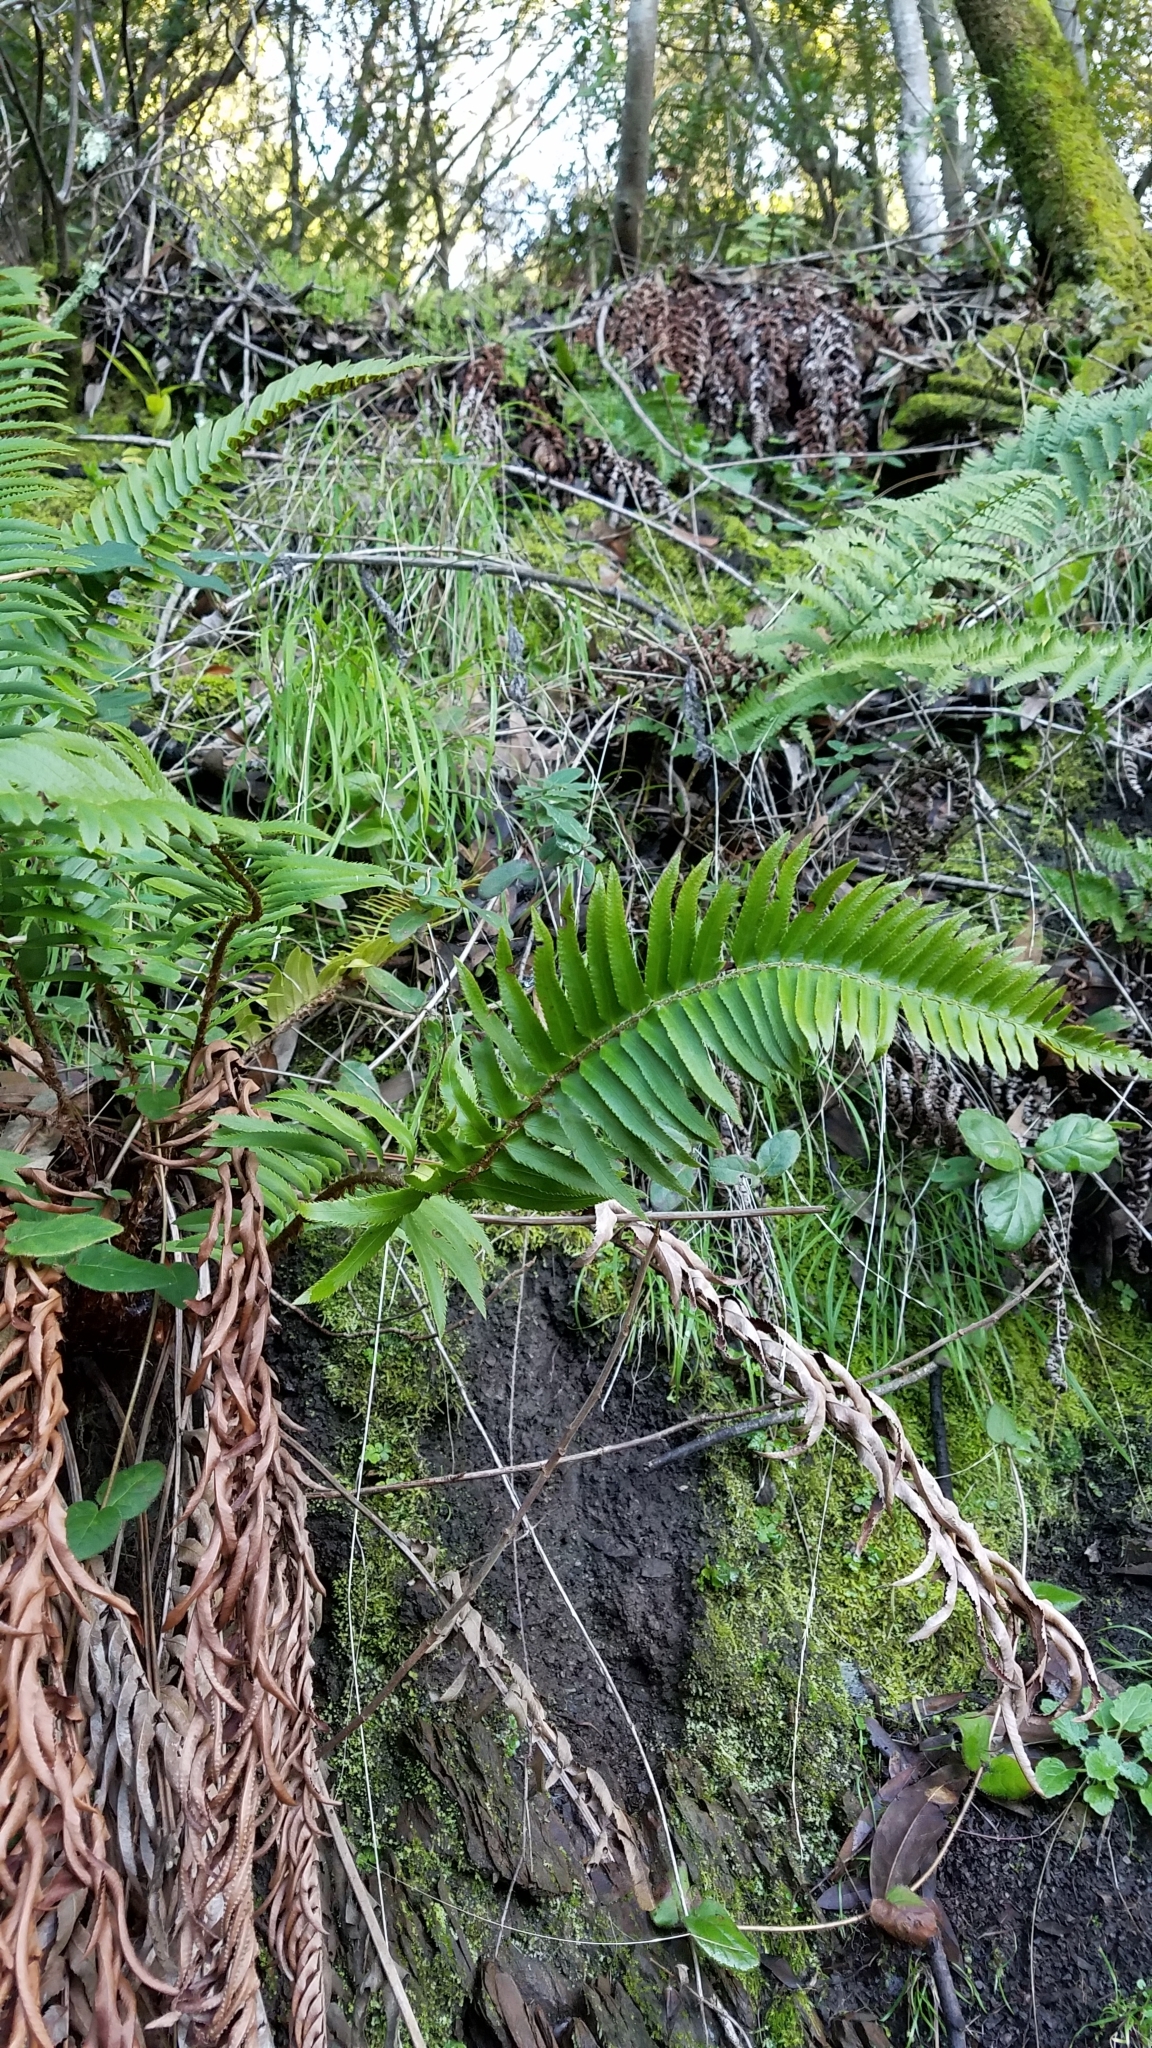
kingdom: Plantae
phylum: Tracheophyta
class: Polypodiopsida
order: Polypodiales
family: Dryopteridaceae
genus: Polystichum
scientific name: Polystichum munitum
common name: Western sword-fern
